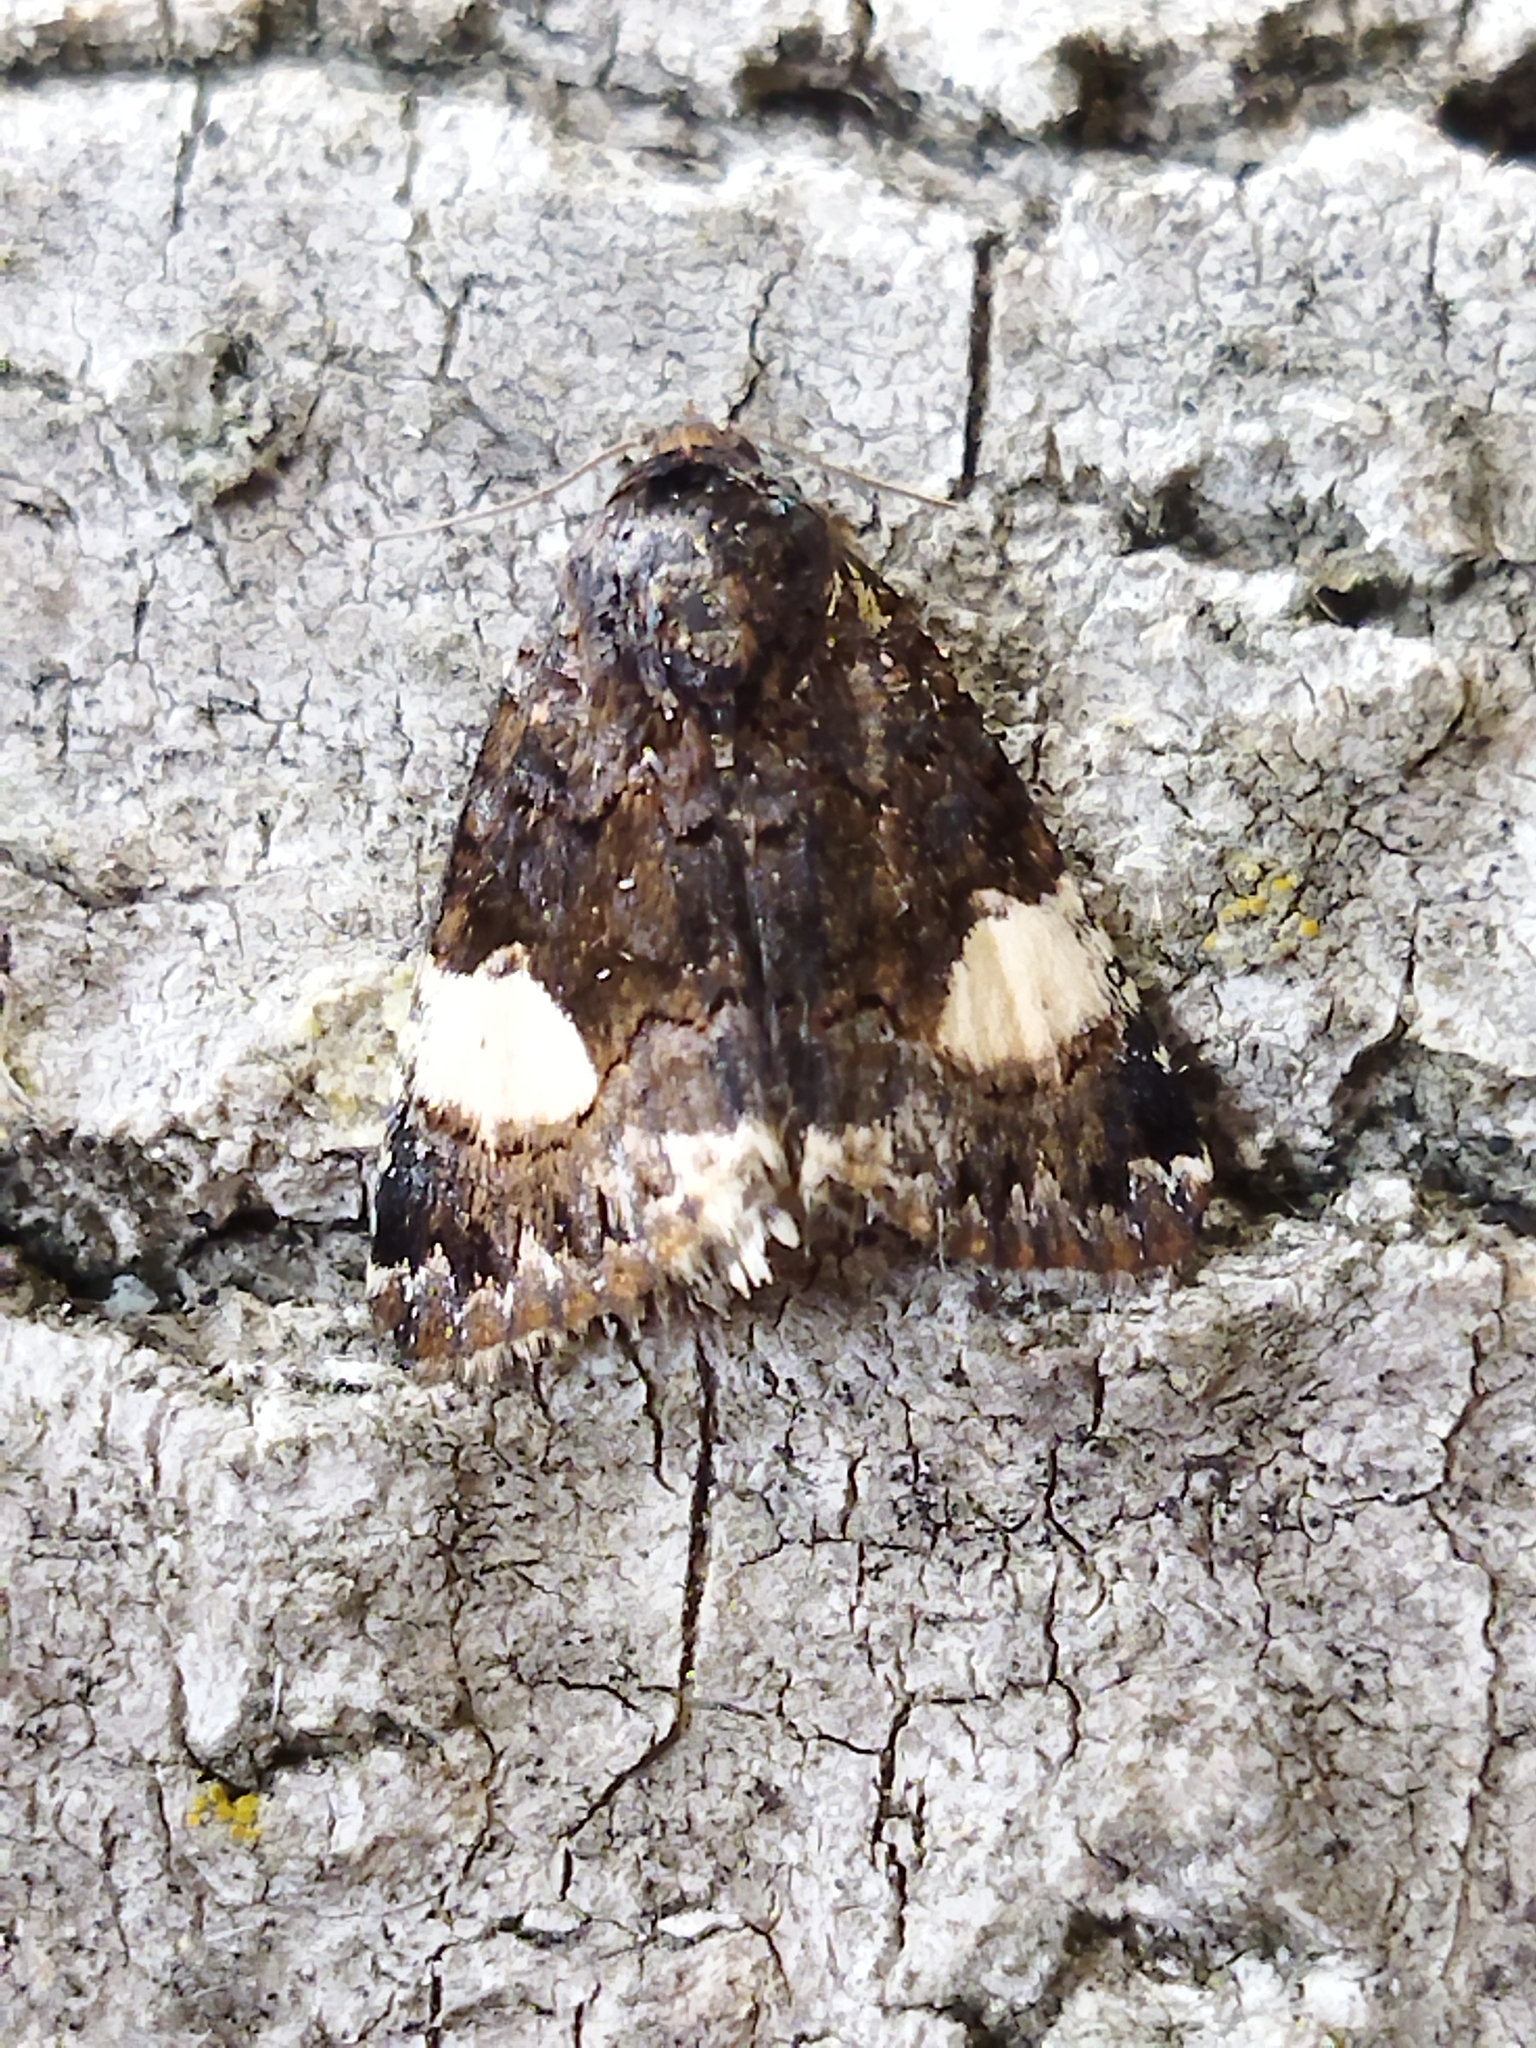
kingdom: Animalia
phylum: Arthropoda
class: Insecta
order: Lepidoptera
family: Erebidae
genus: Tyta
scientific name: Tyta luctuosa
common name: Four-spotted
